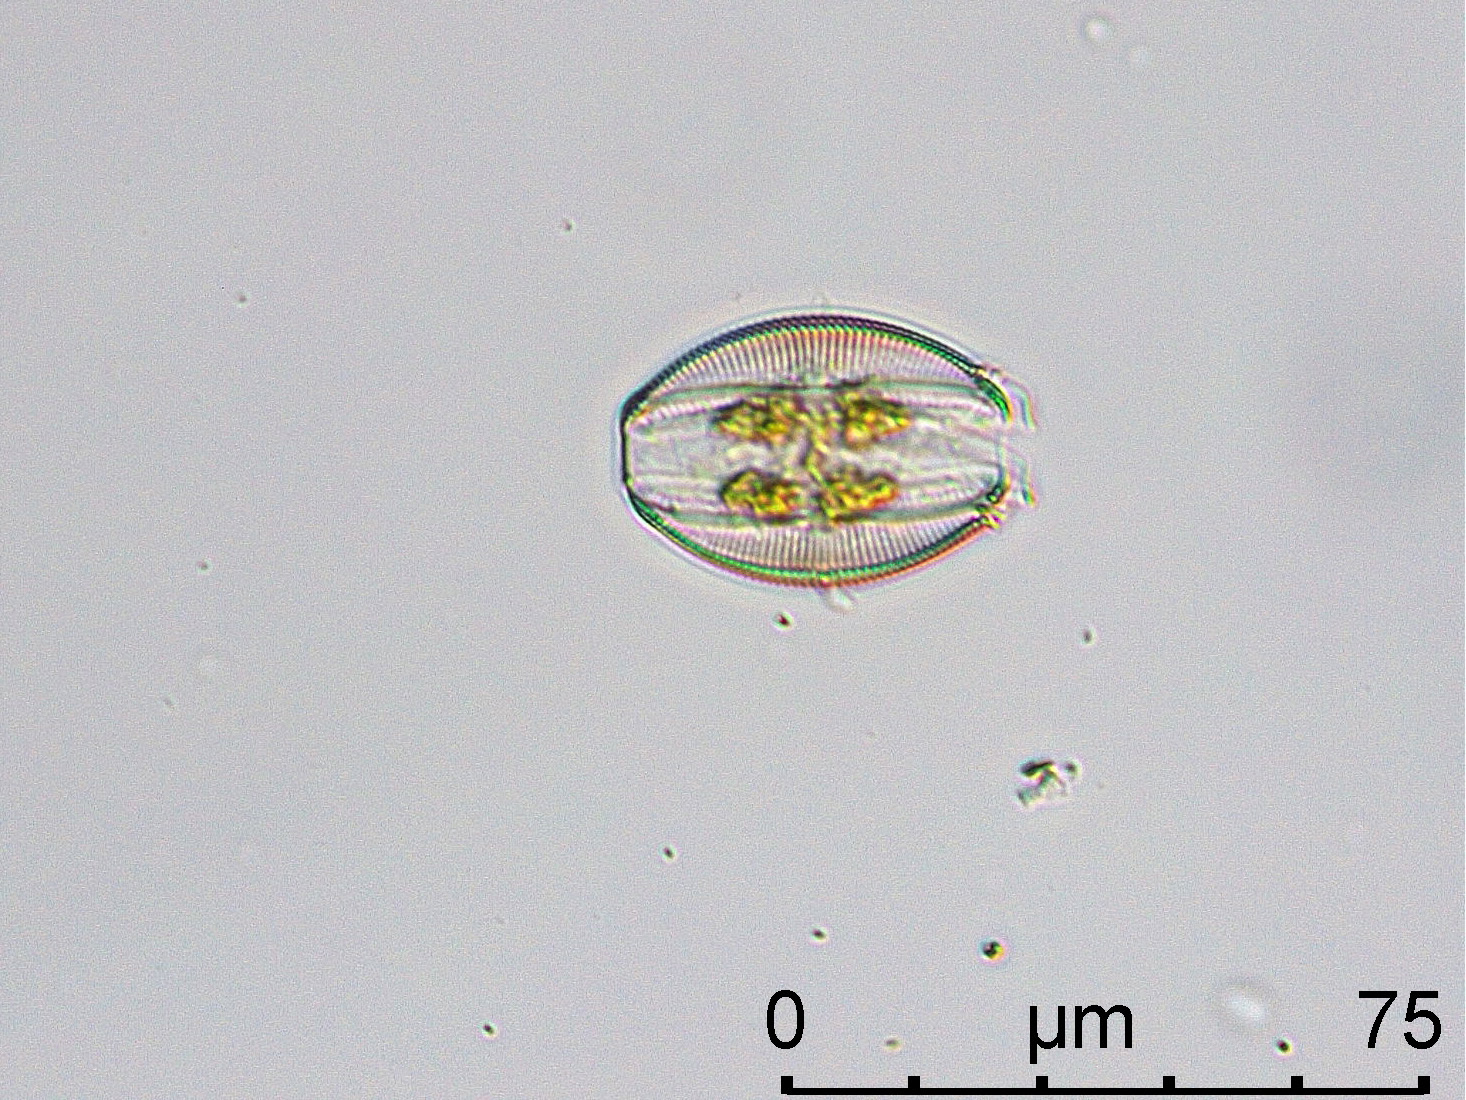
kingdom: Chromista
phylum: Ochrophyta
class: Bacillariophyceae
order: Thalassiophysales
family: Catenulaceae
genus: Amphora
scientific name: Amphora ovalis
